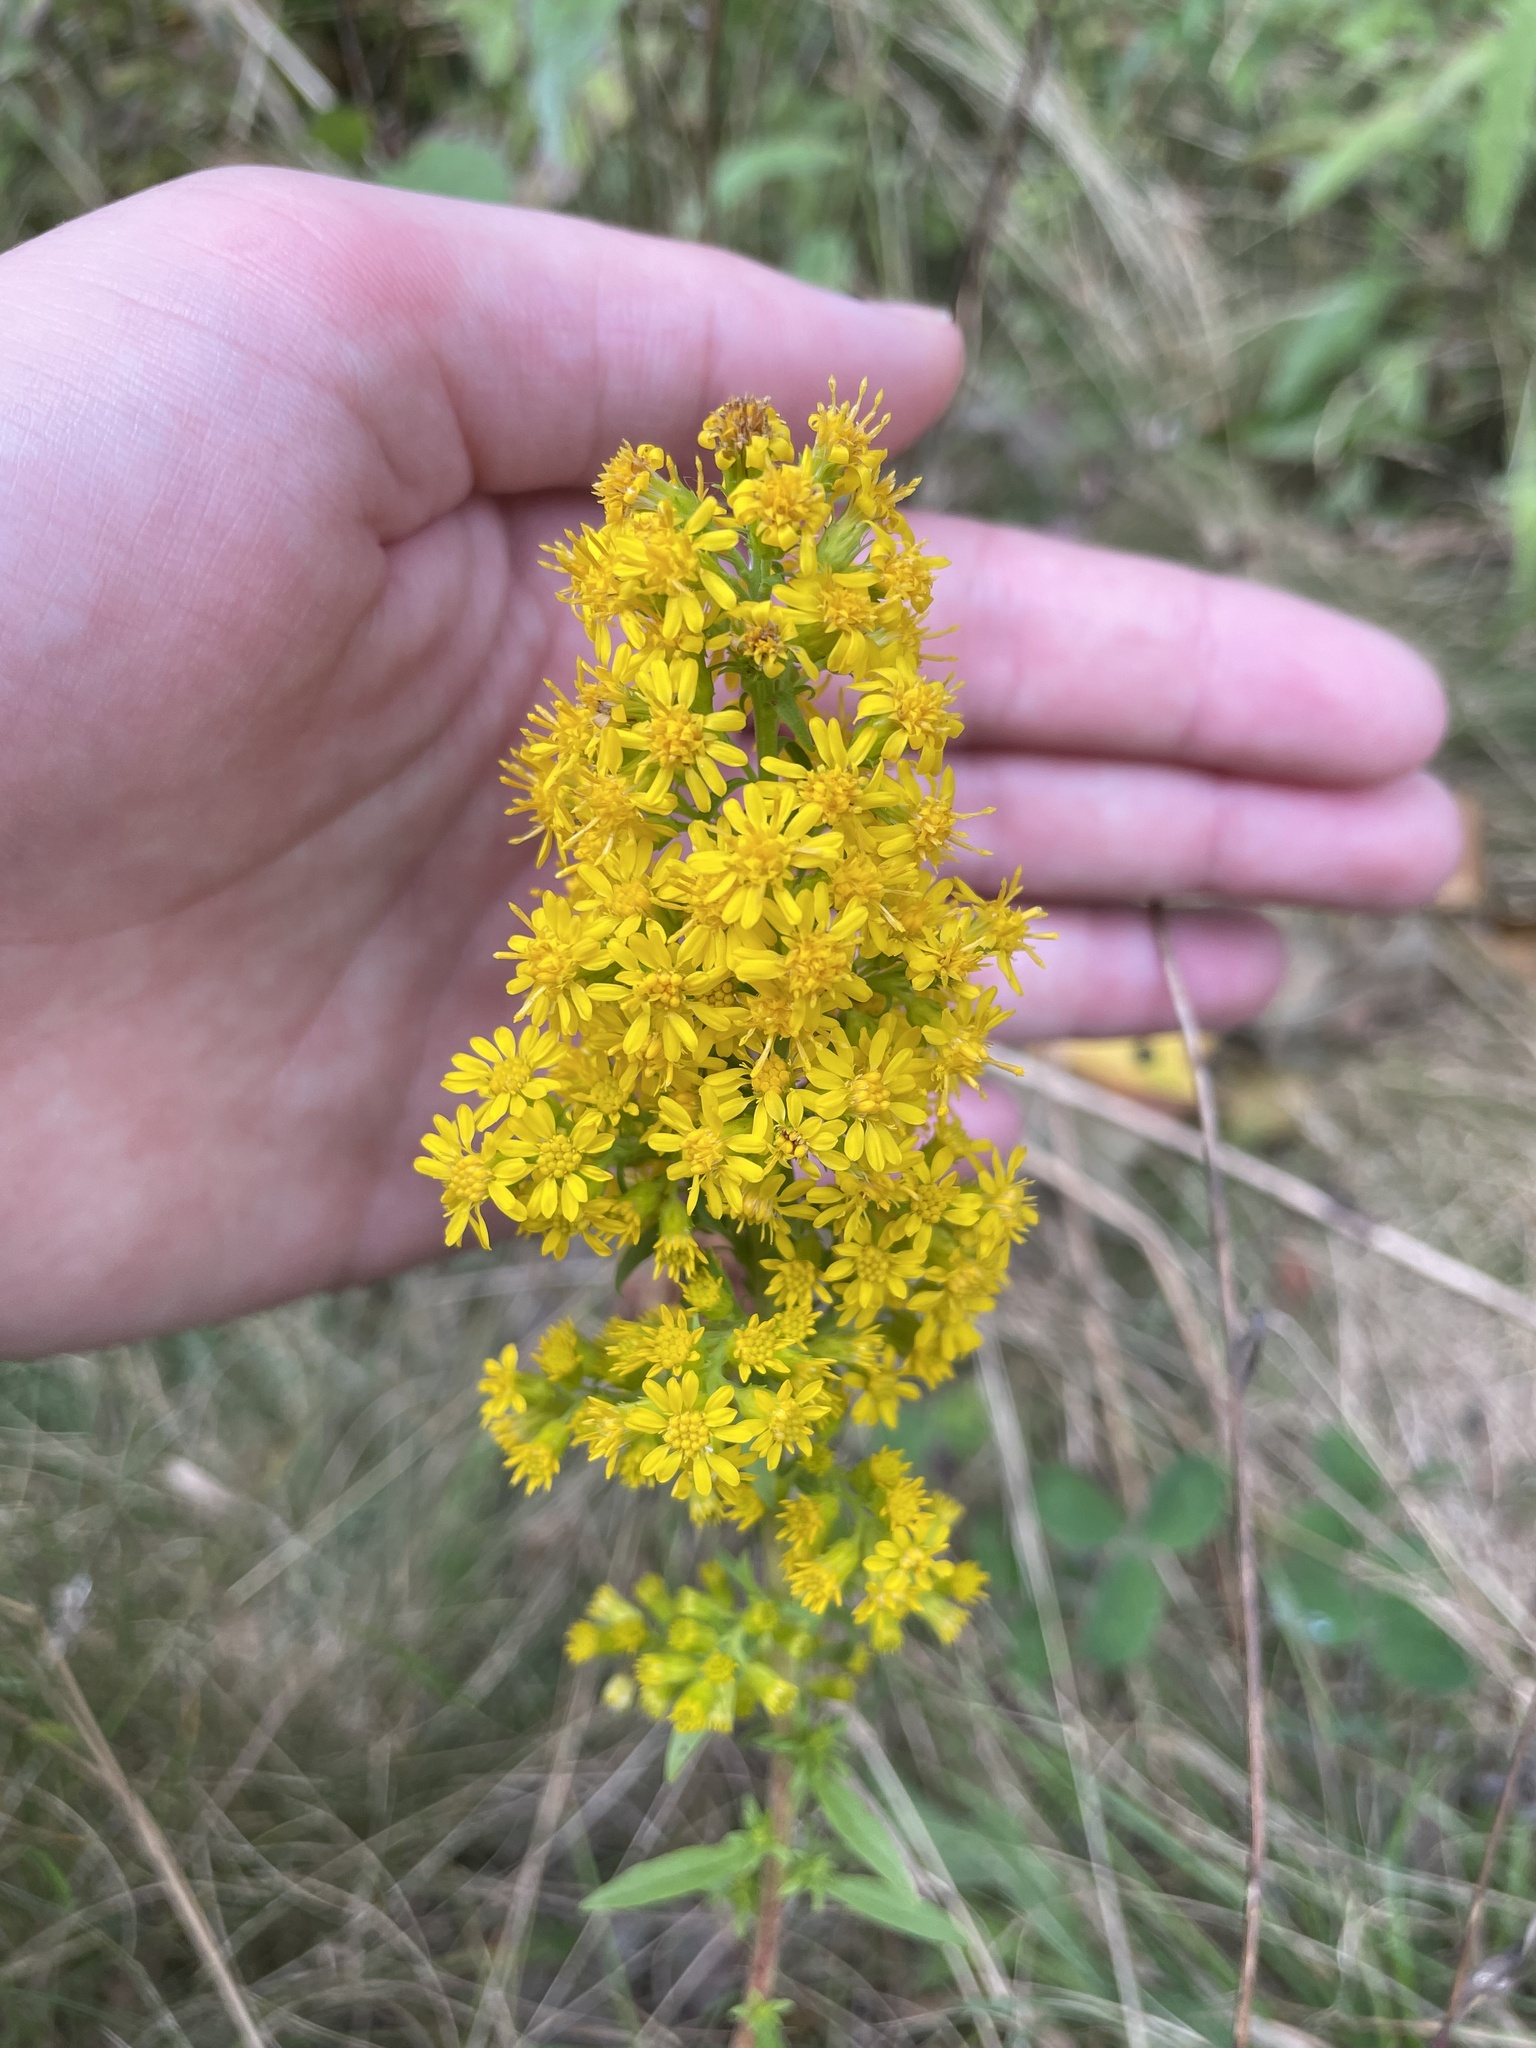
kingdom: Plantae
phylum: Tracheophyta
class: Magnoliopsida
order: Asterales
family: Asteraceae
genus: Solidago
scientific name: Solidago puberula
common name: Downy goldenrod
